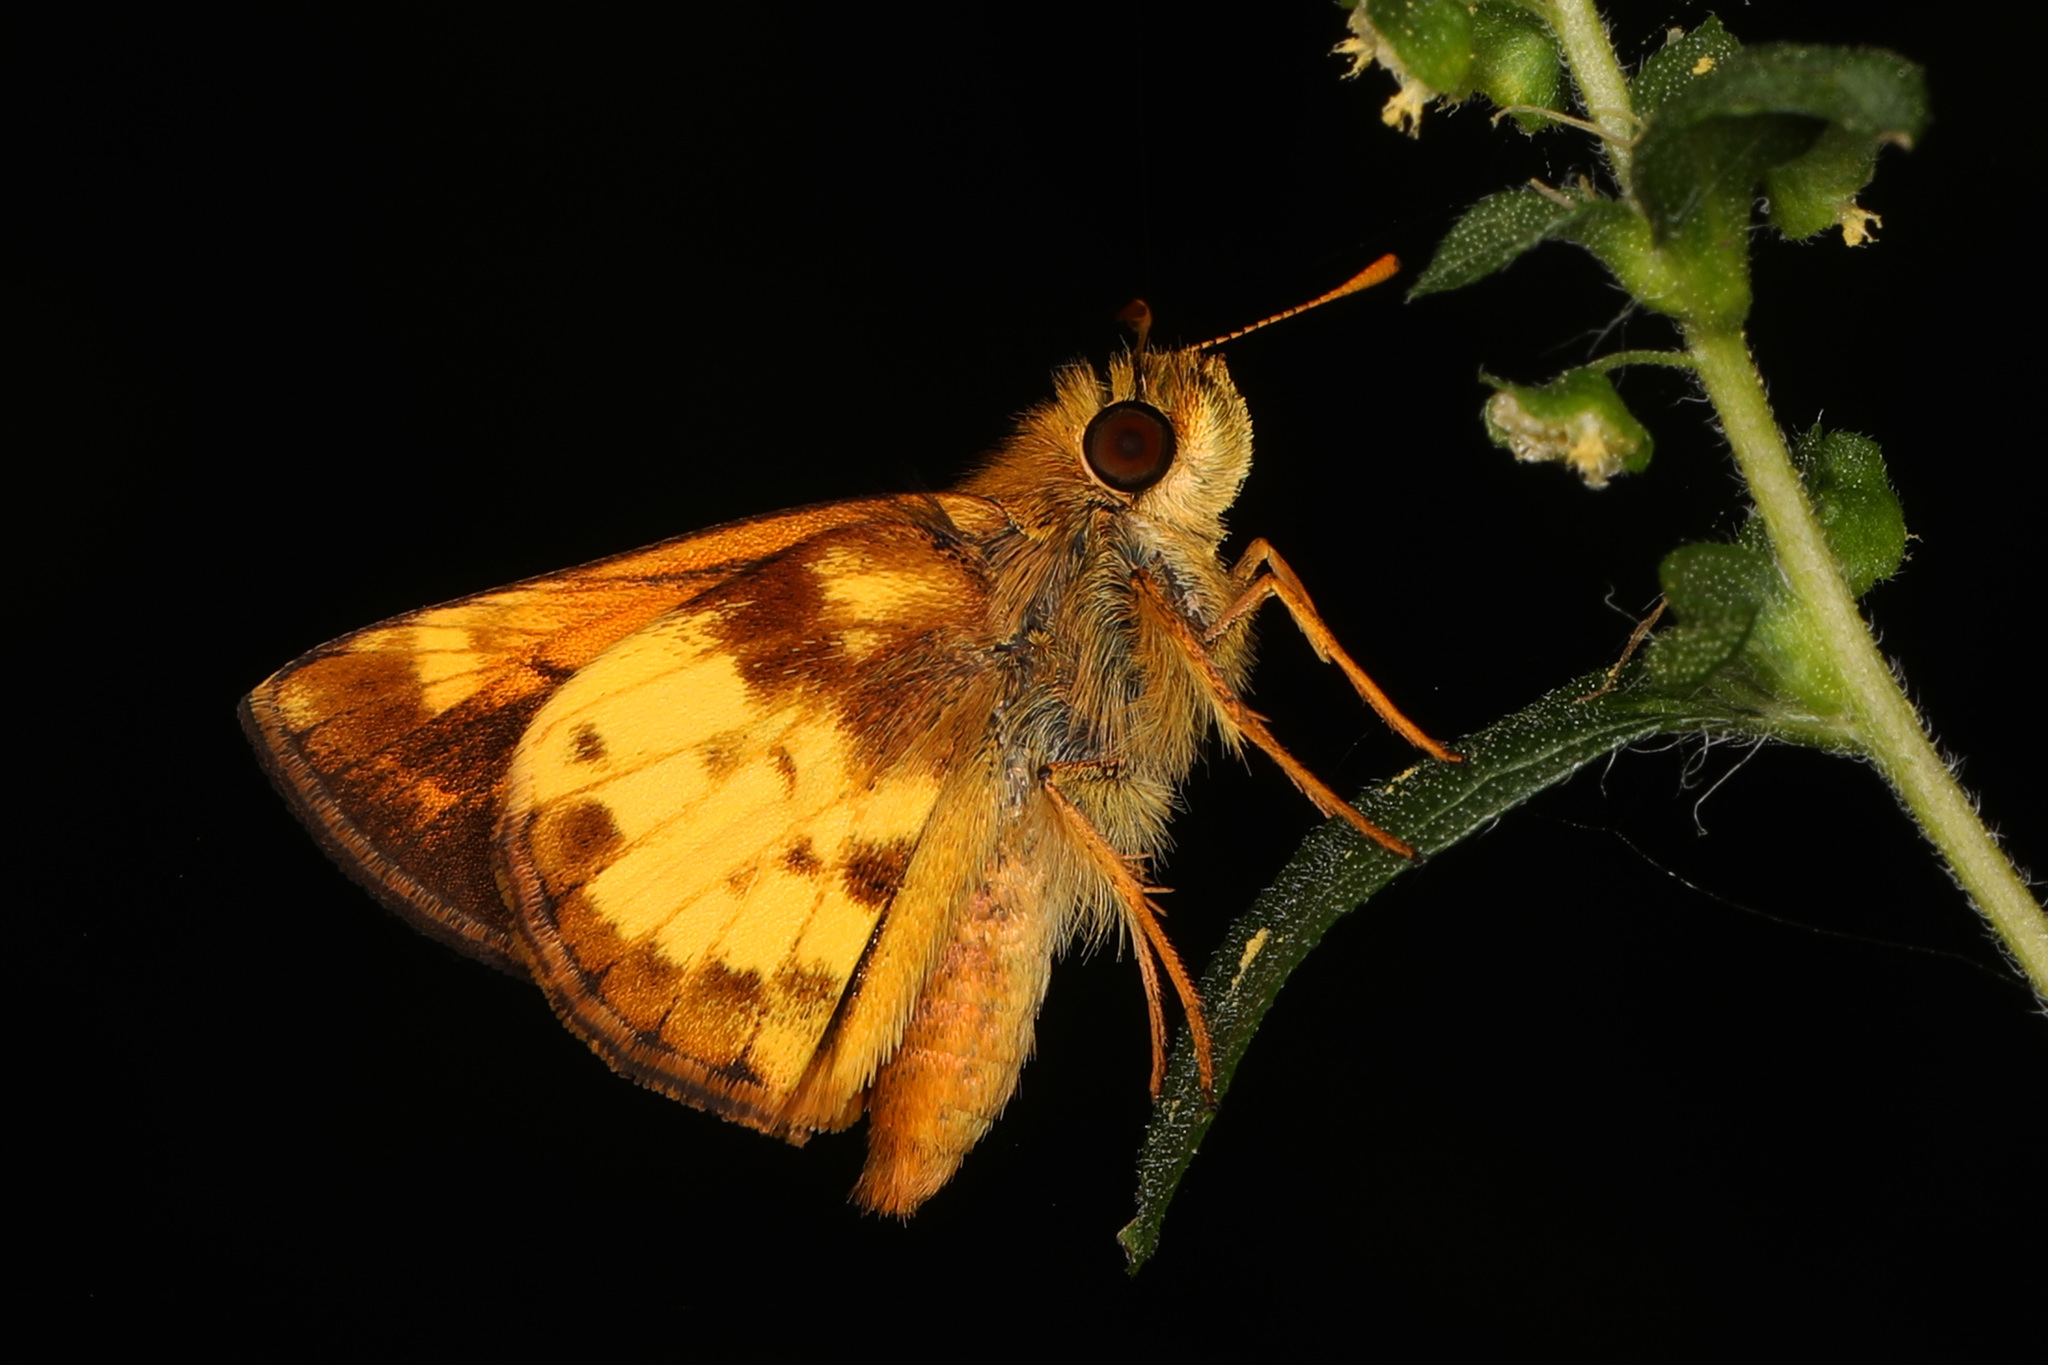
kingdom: Animalia
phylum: Arthropoda
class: Insecta
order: Lepidoptera
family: Hesperiidae
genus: Lon
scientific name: Lon zabulon
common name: Zabulon skipper
